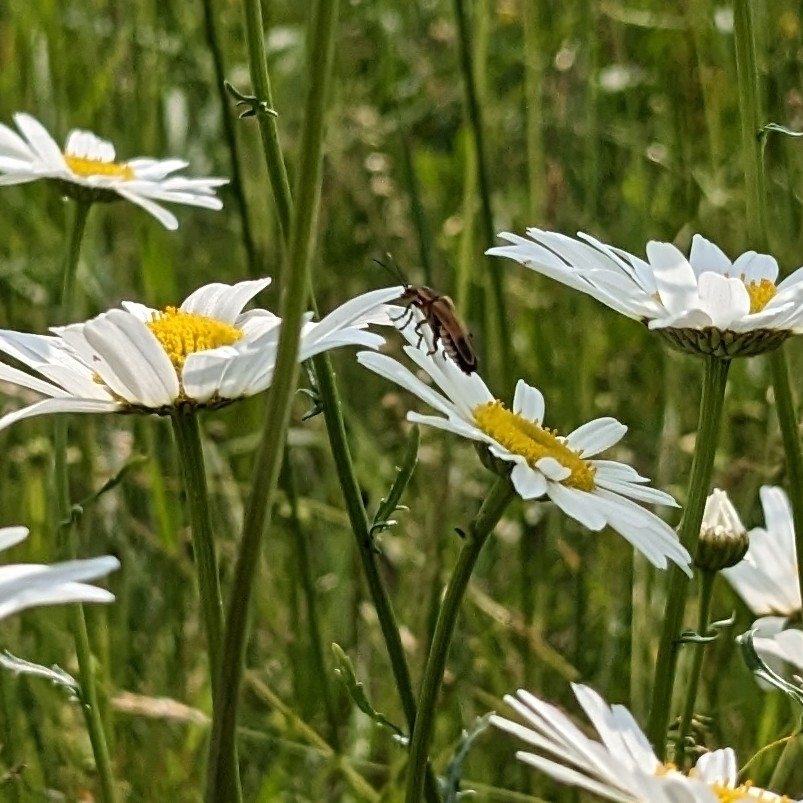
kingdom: Animalia
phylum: Arthropoda
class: Insecta
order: Coleoptera
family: Cantharidae
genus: Chauliognathus
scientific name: Chauliognathus marginatus
